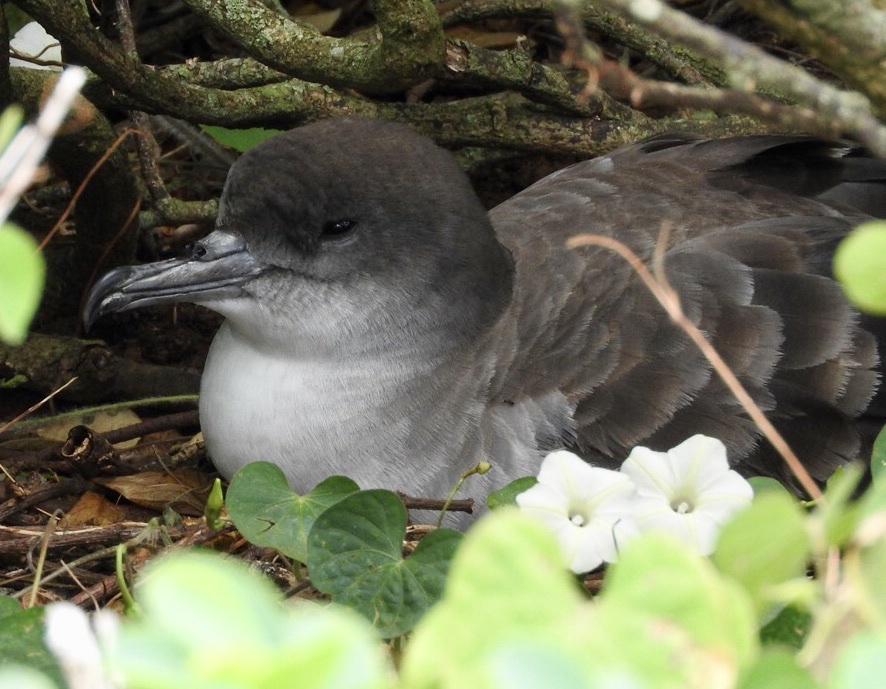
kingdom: Animalia
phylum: Chordata
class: Aves
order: Procellariiformes
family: Procellariidae
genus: Puffinus
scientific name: Puffinus pacificus
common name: Wedge-tailed shearwater
